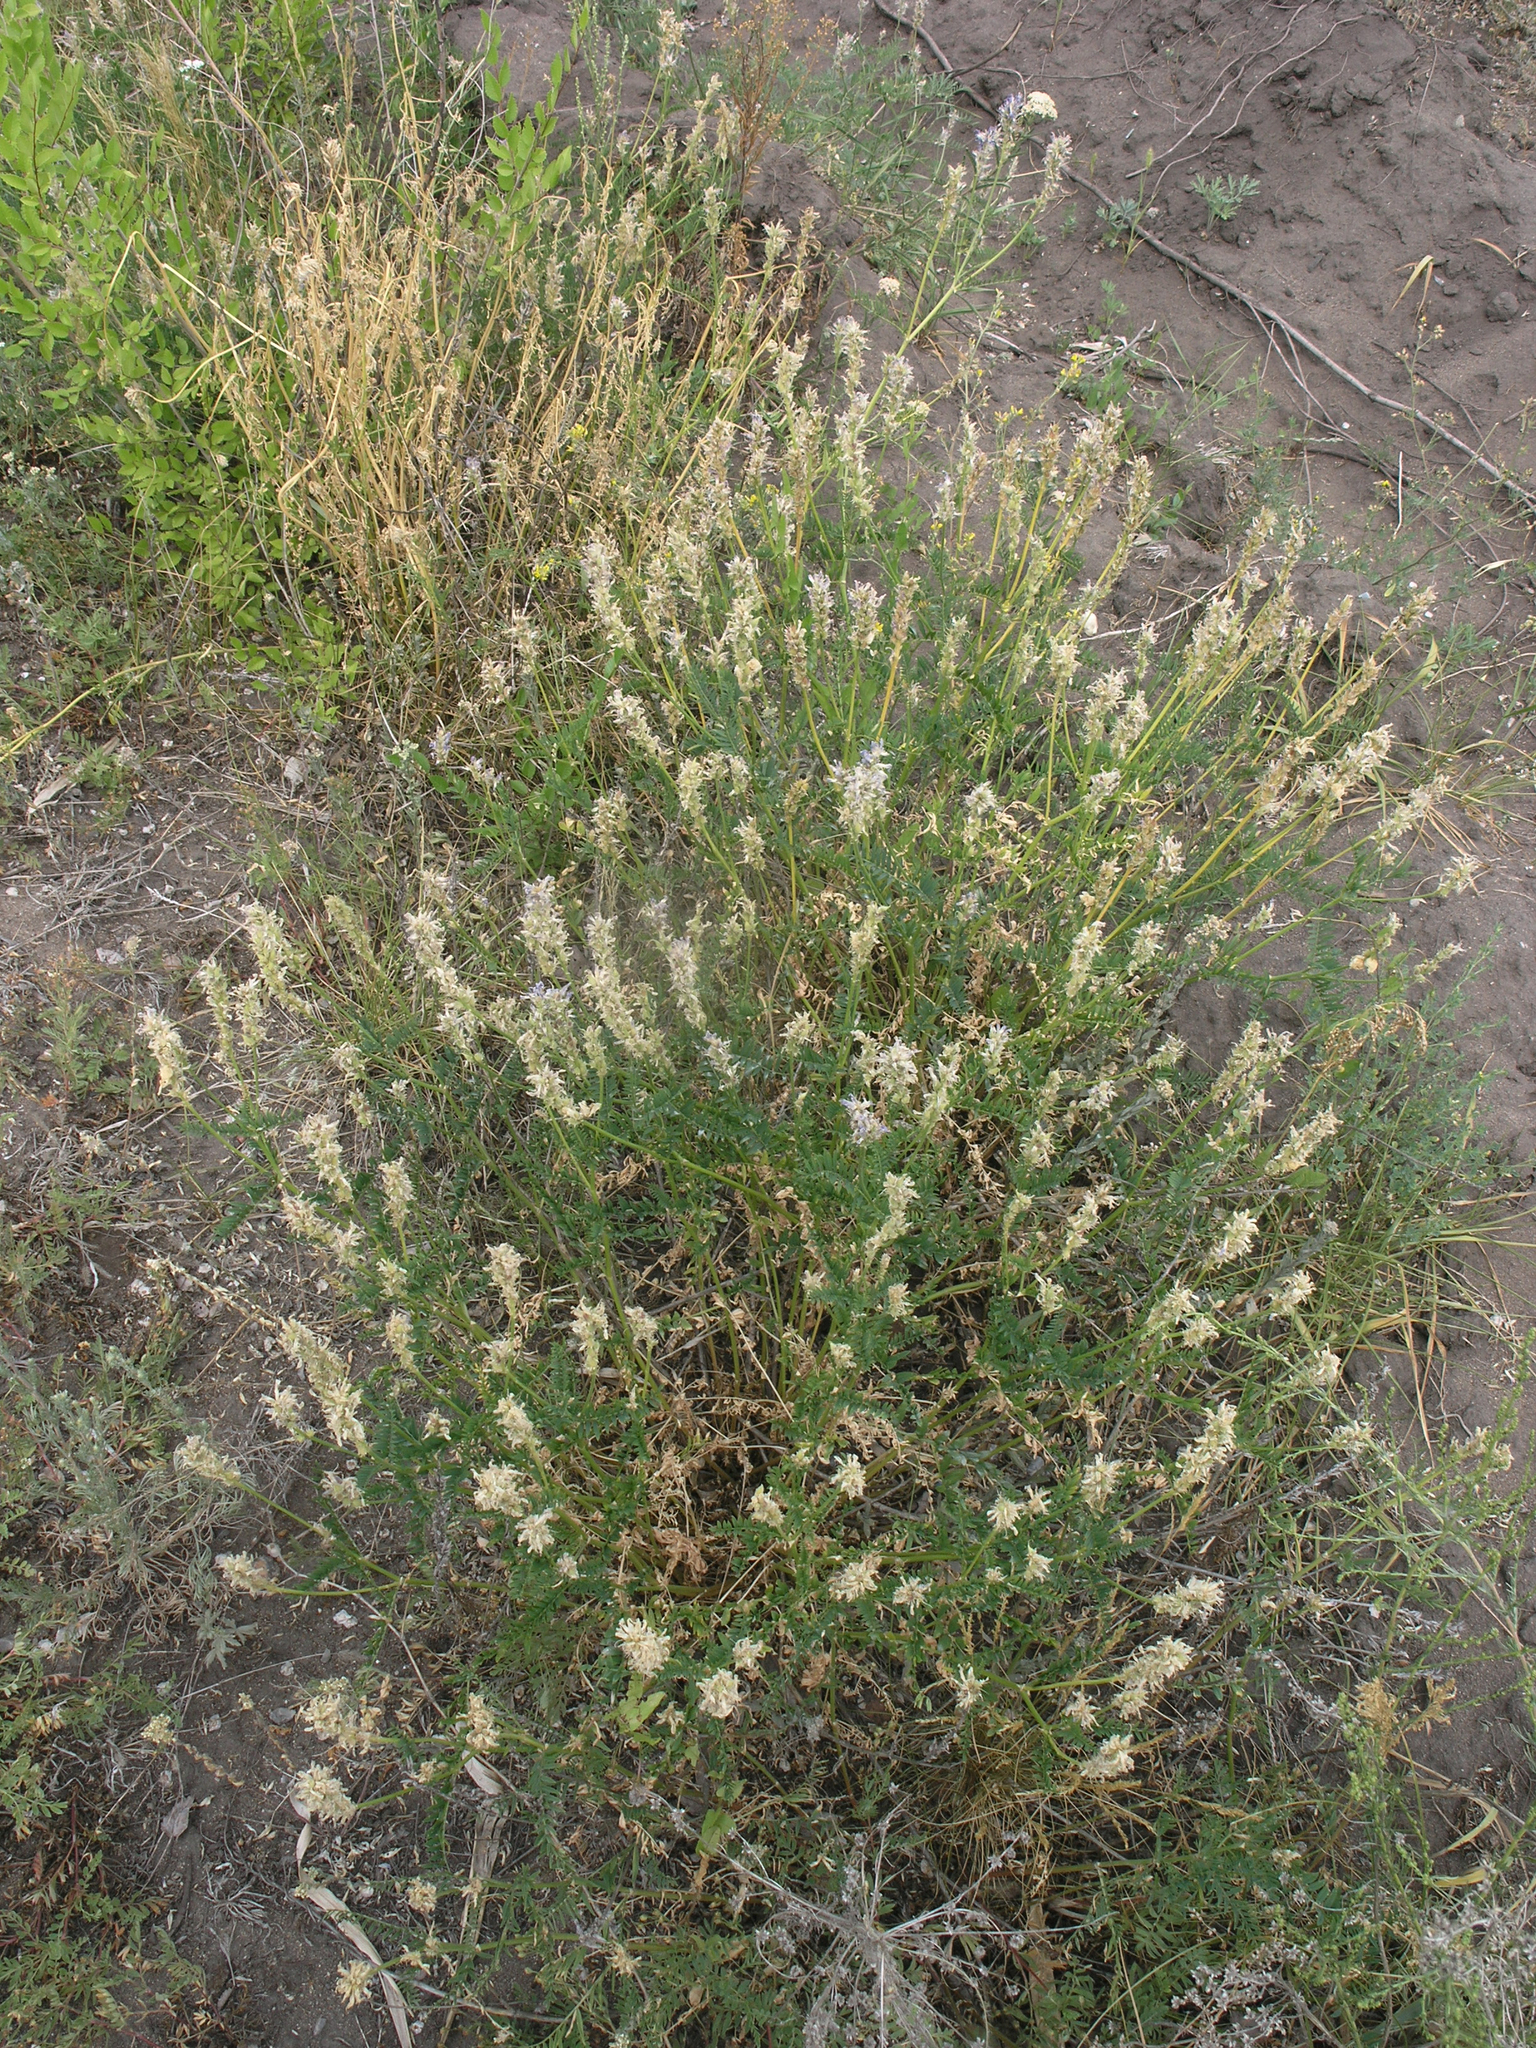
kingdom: Plantae
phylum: Tracheophyta
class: Magnoliopsida
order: Fabales
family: Fabaceae
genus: Astragalus
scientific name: Astragalus onobrychis
